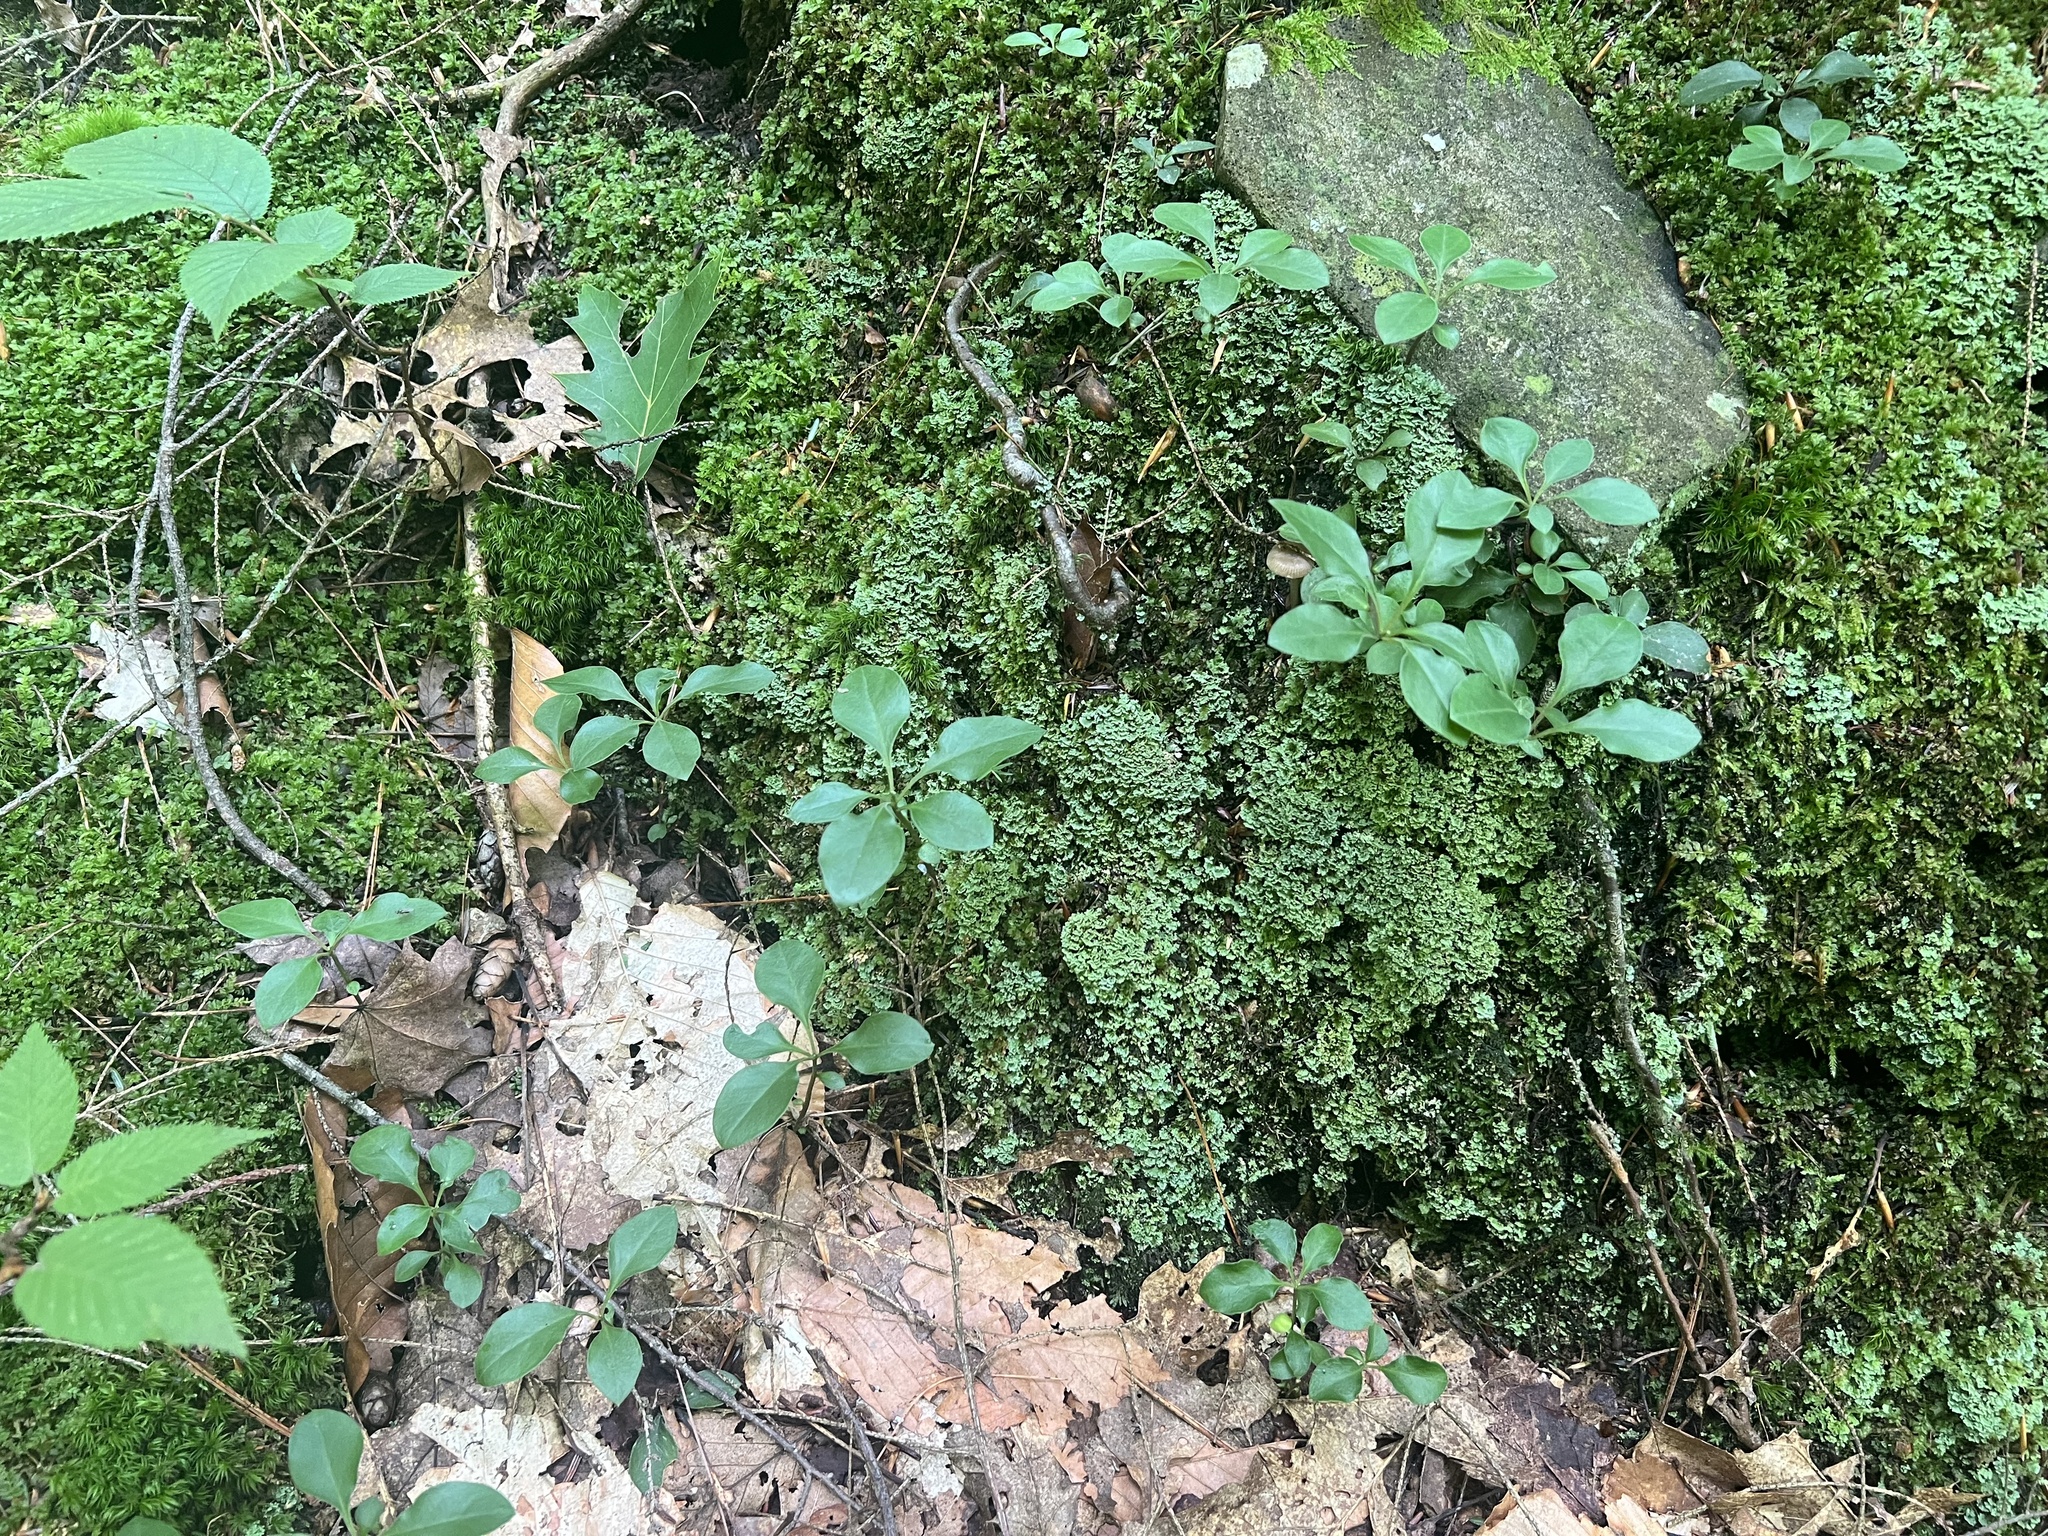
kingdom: Plantae
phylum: Tracheophyta
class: Magnoliopsida
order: Fabales
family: Polygalaceae
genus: Polygaloides
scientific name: Polygaloides paucifolia
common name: Bird-on-the-wing
